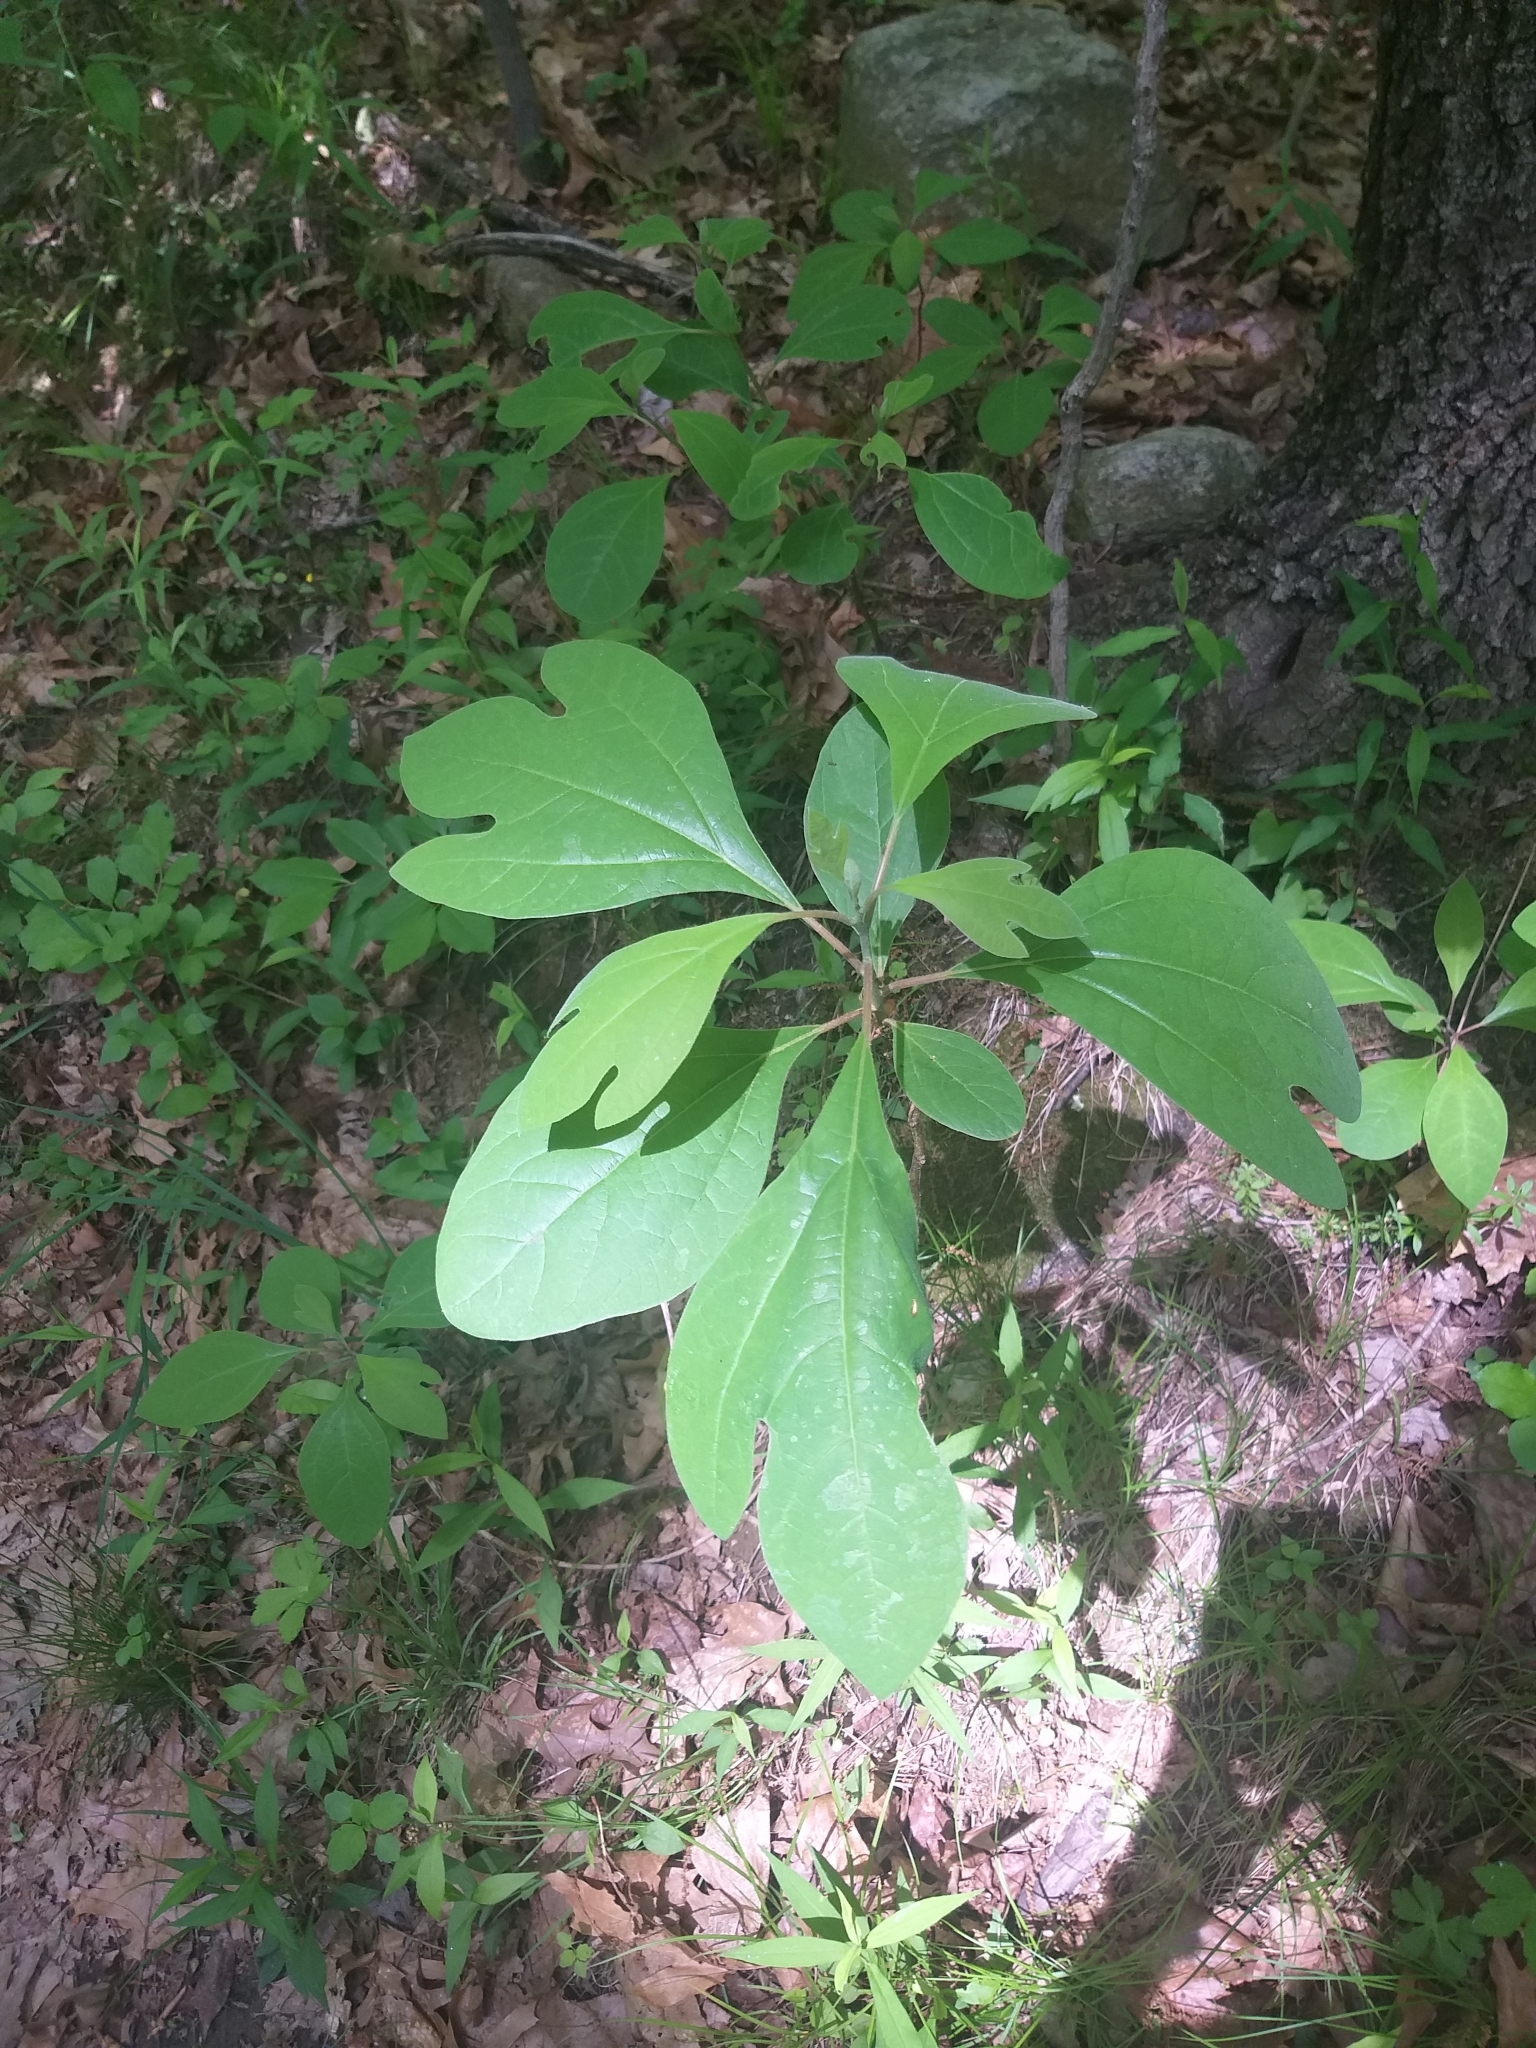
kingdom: Plantae
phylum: Tracheophyta
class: Magnoliopsida
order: Laurales
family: Lauraceae
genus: Sassafras
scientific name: Sassafras albidum
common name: Sassafras
